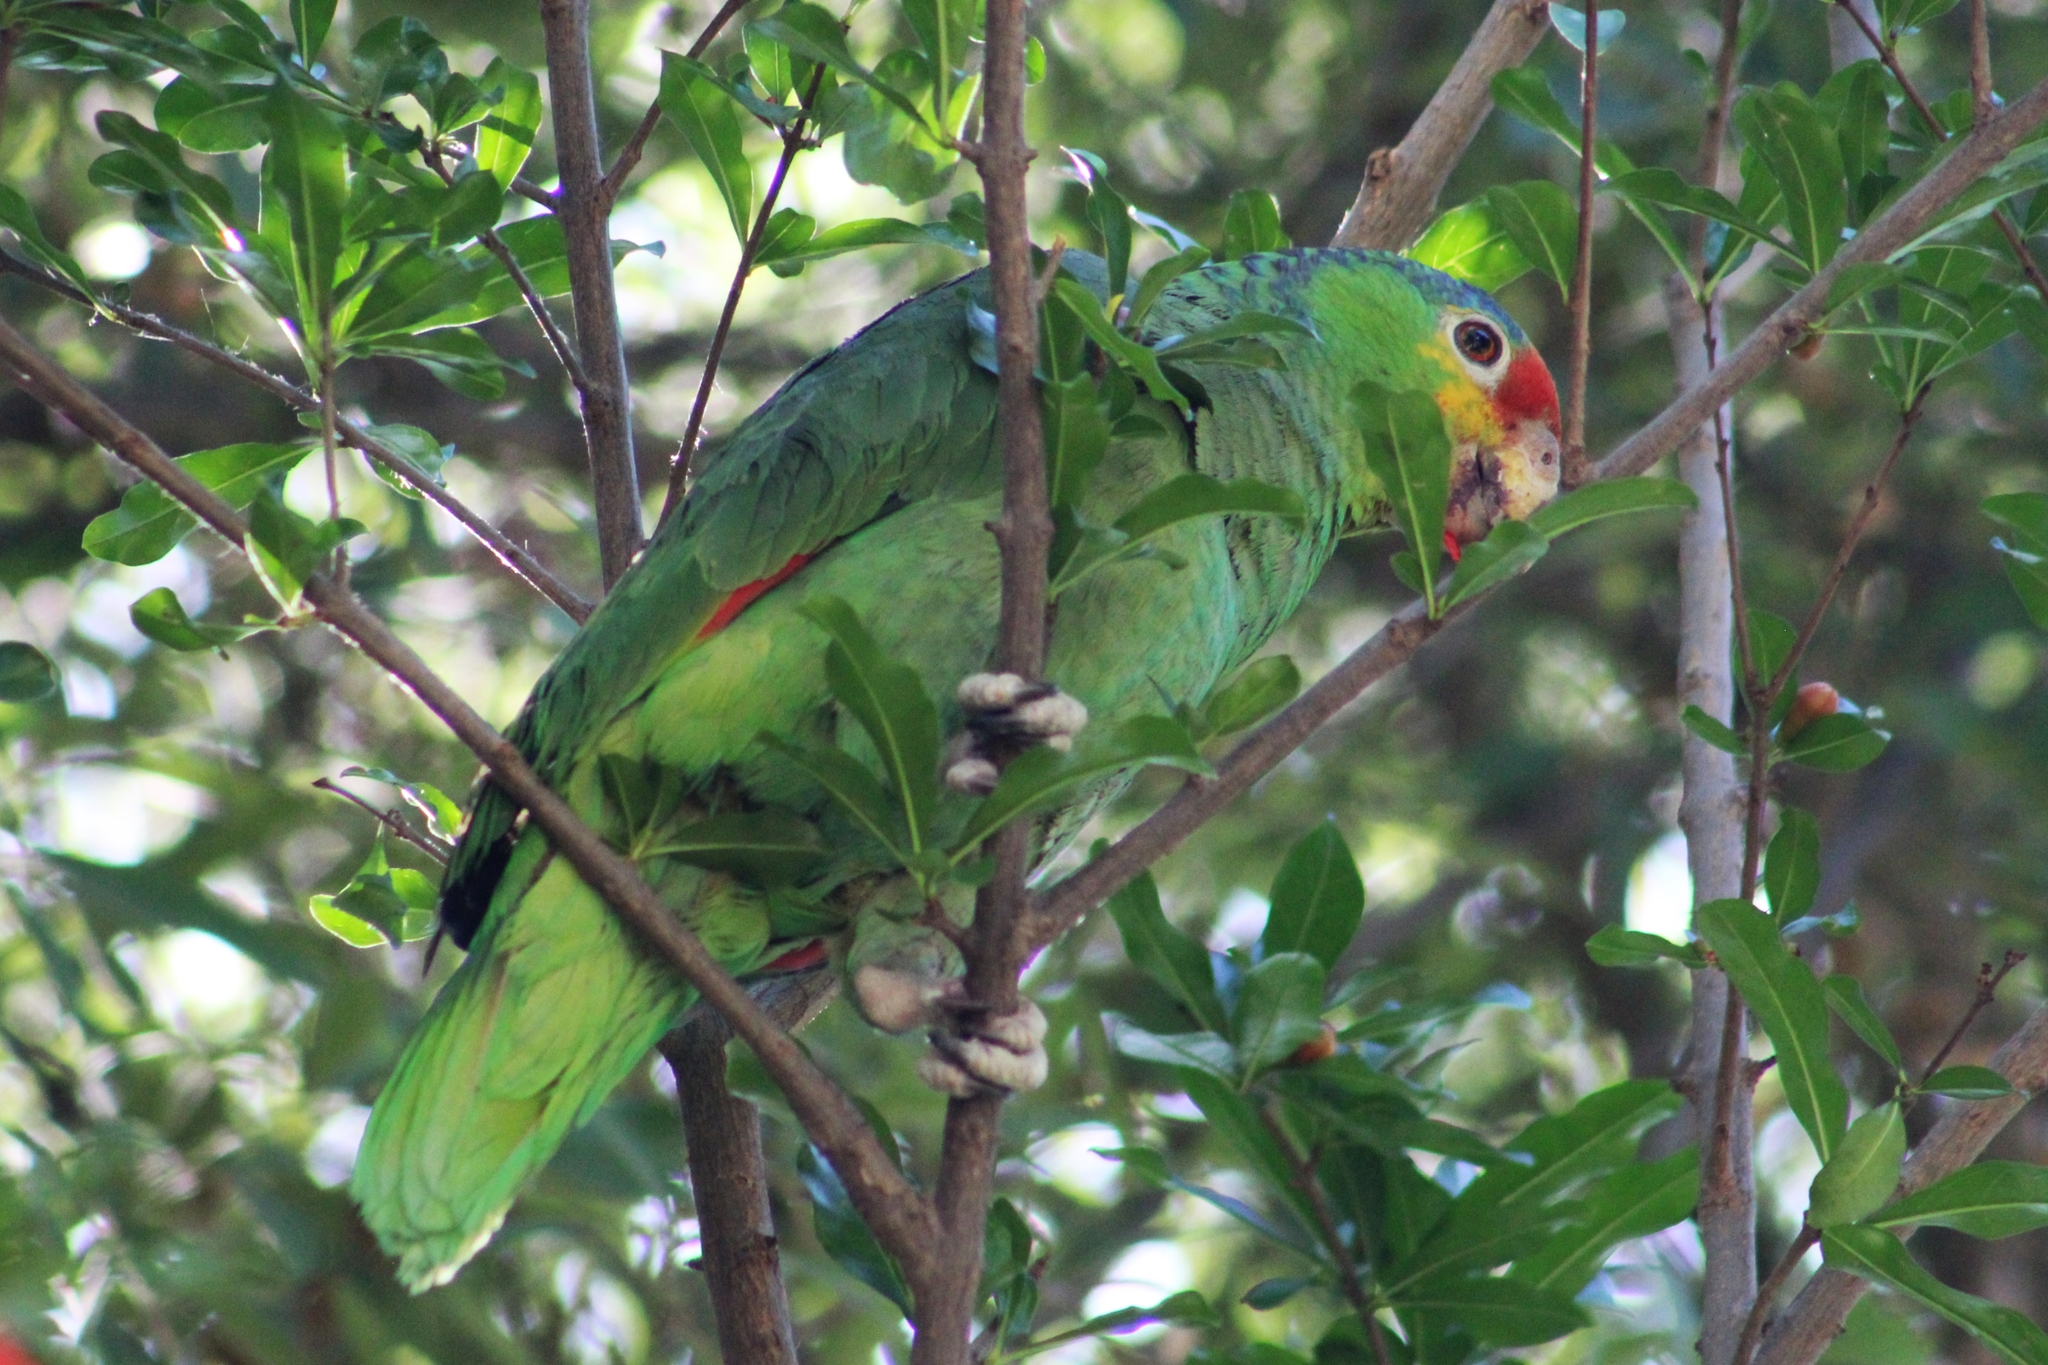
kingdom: Animalia
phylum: Chordata
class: Aves
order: Psittaciformes
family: Psittacidae
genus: Amazona
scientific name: Amazona autumnalis
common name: Red-lored amazon
